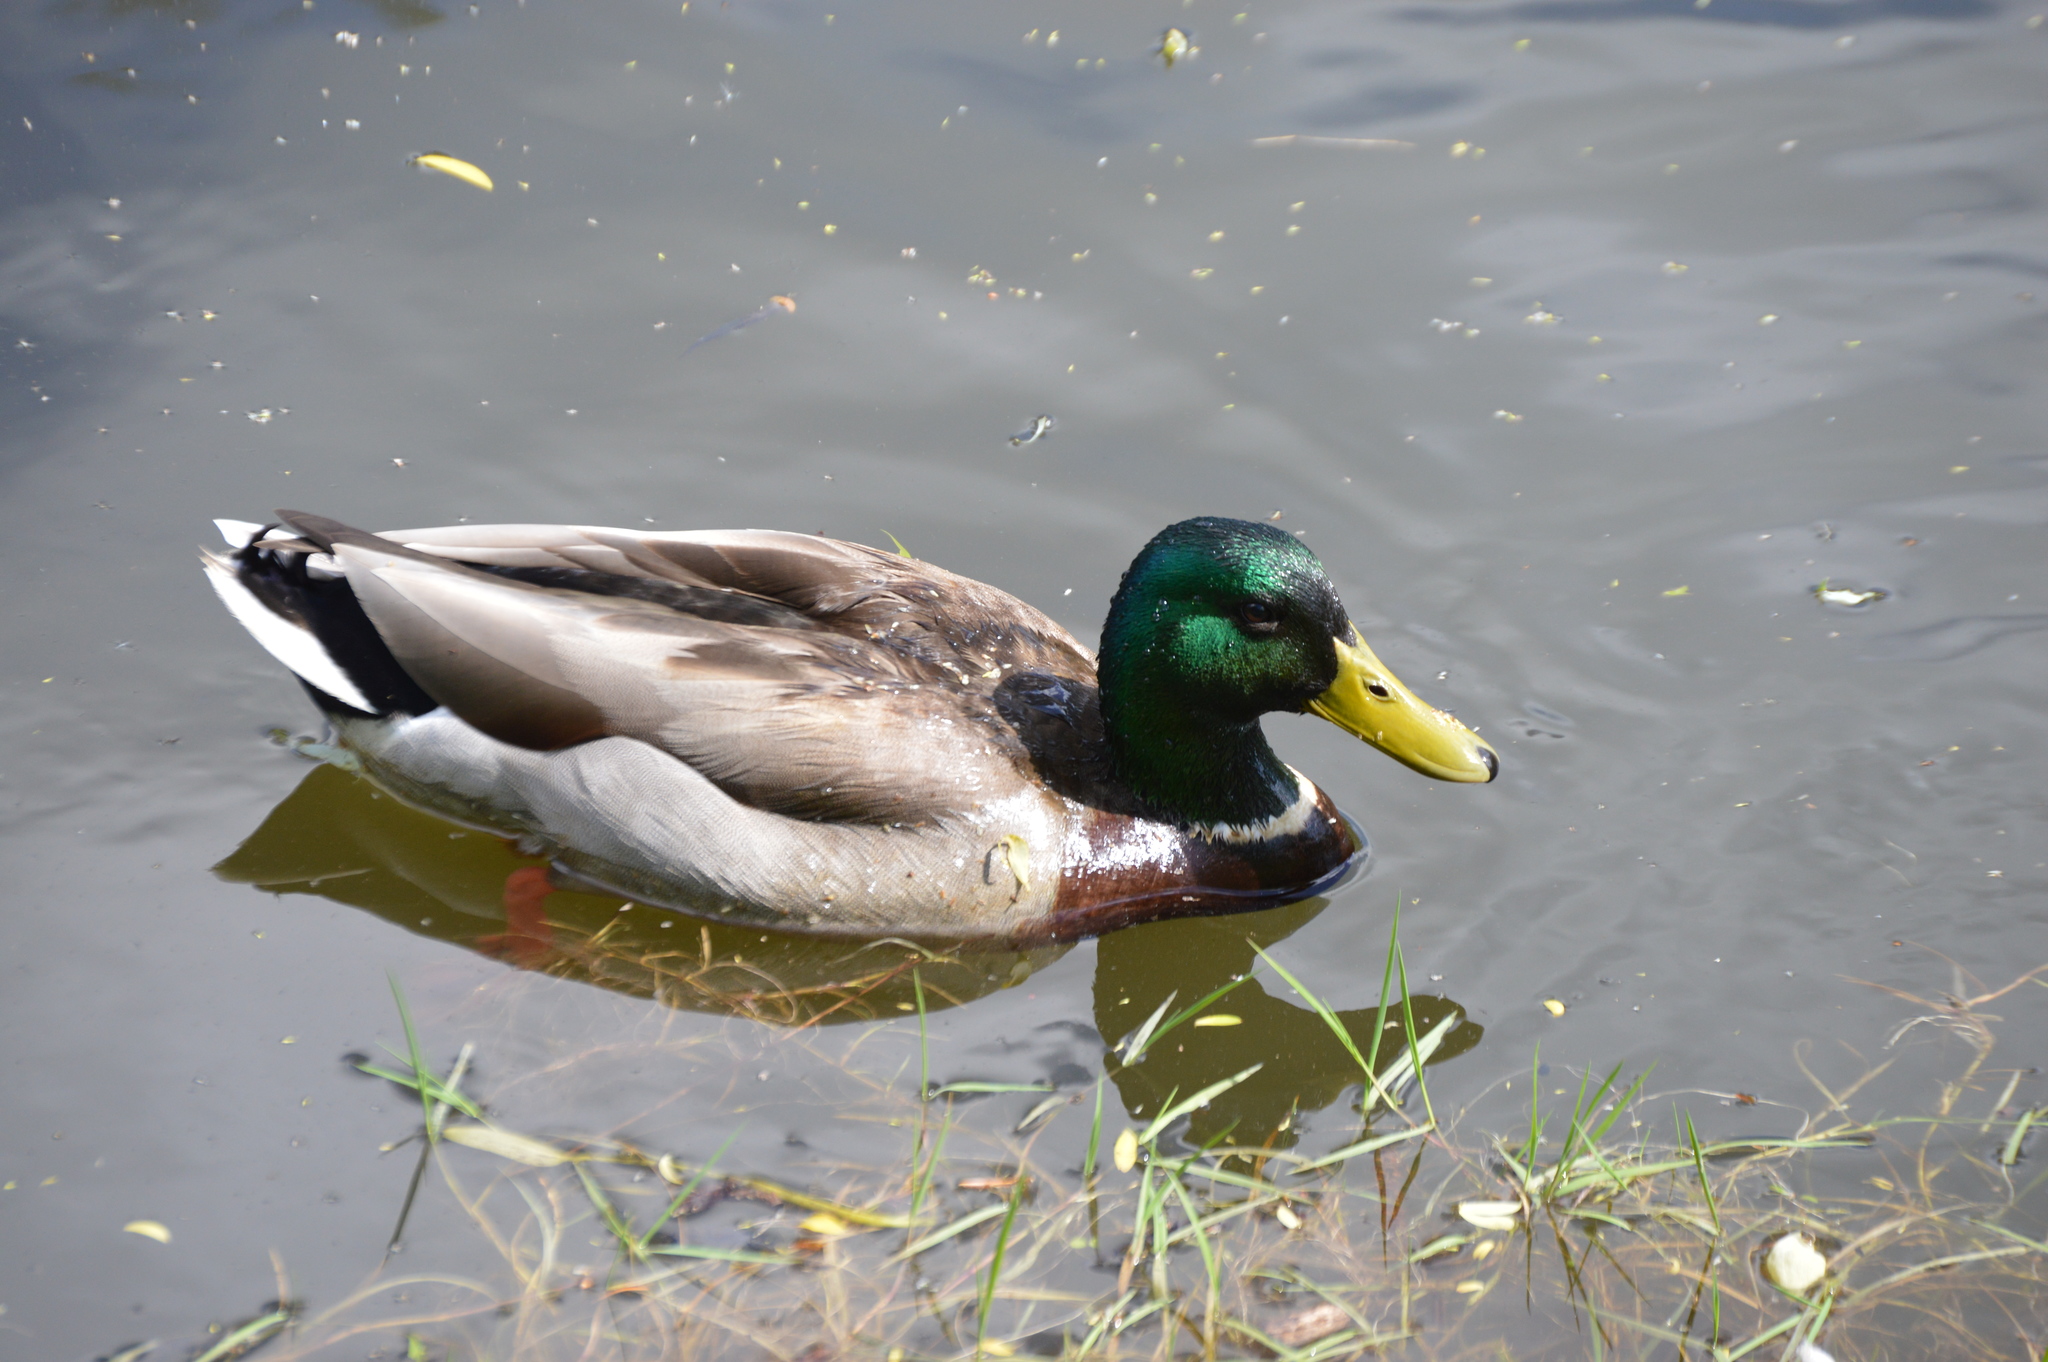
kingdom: Animalia
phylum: Chordata
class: Aves
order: Anseriformes
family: Anatidae
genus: Anas
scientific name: Anas platyrhynchos
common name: Mallard
